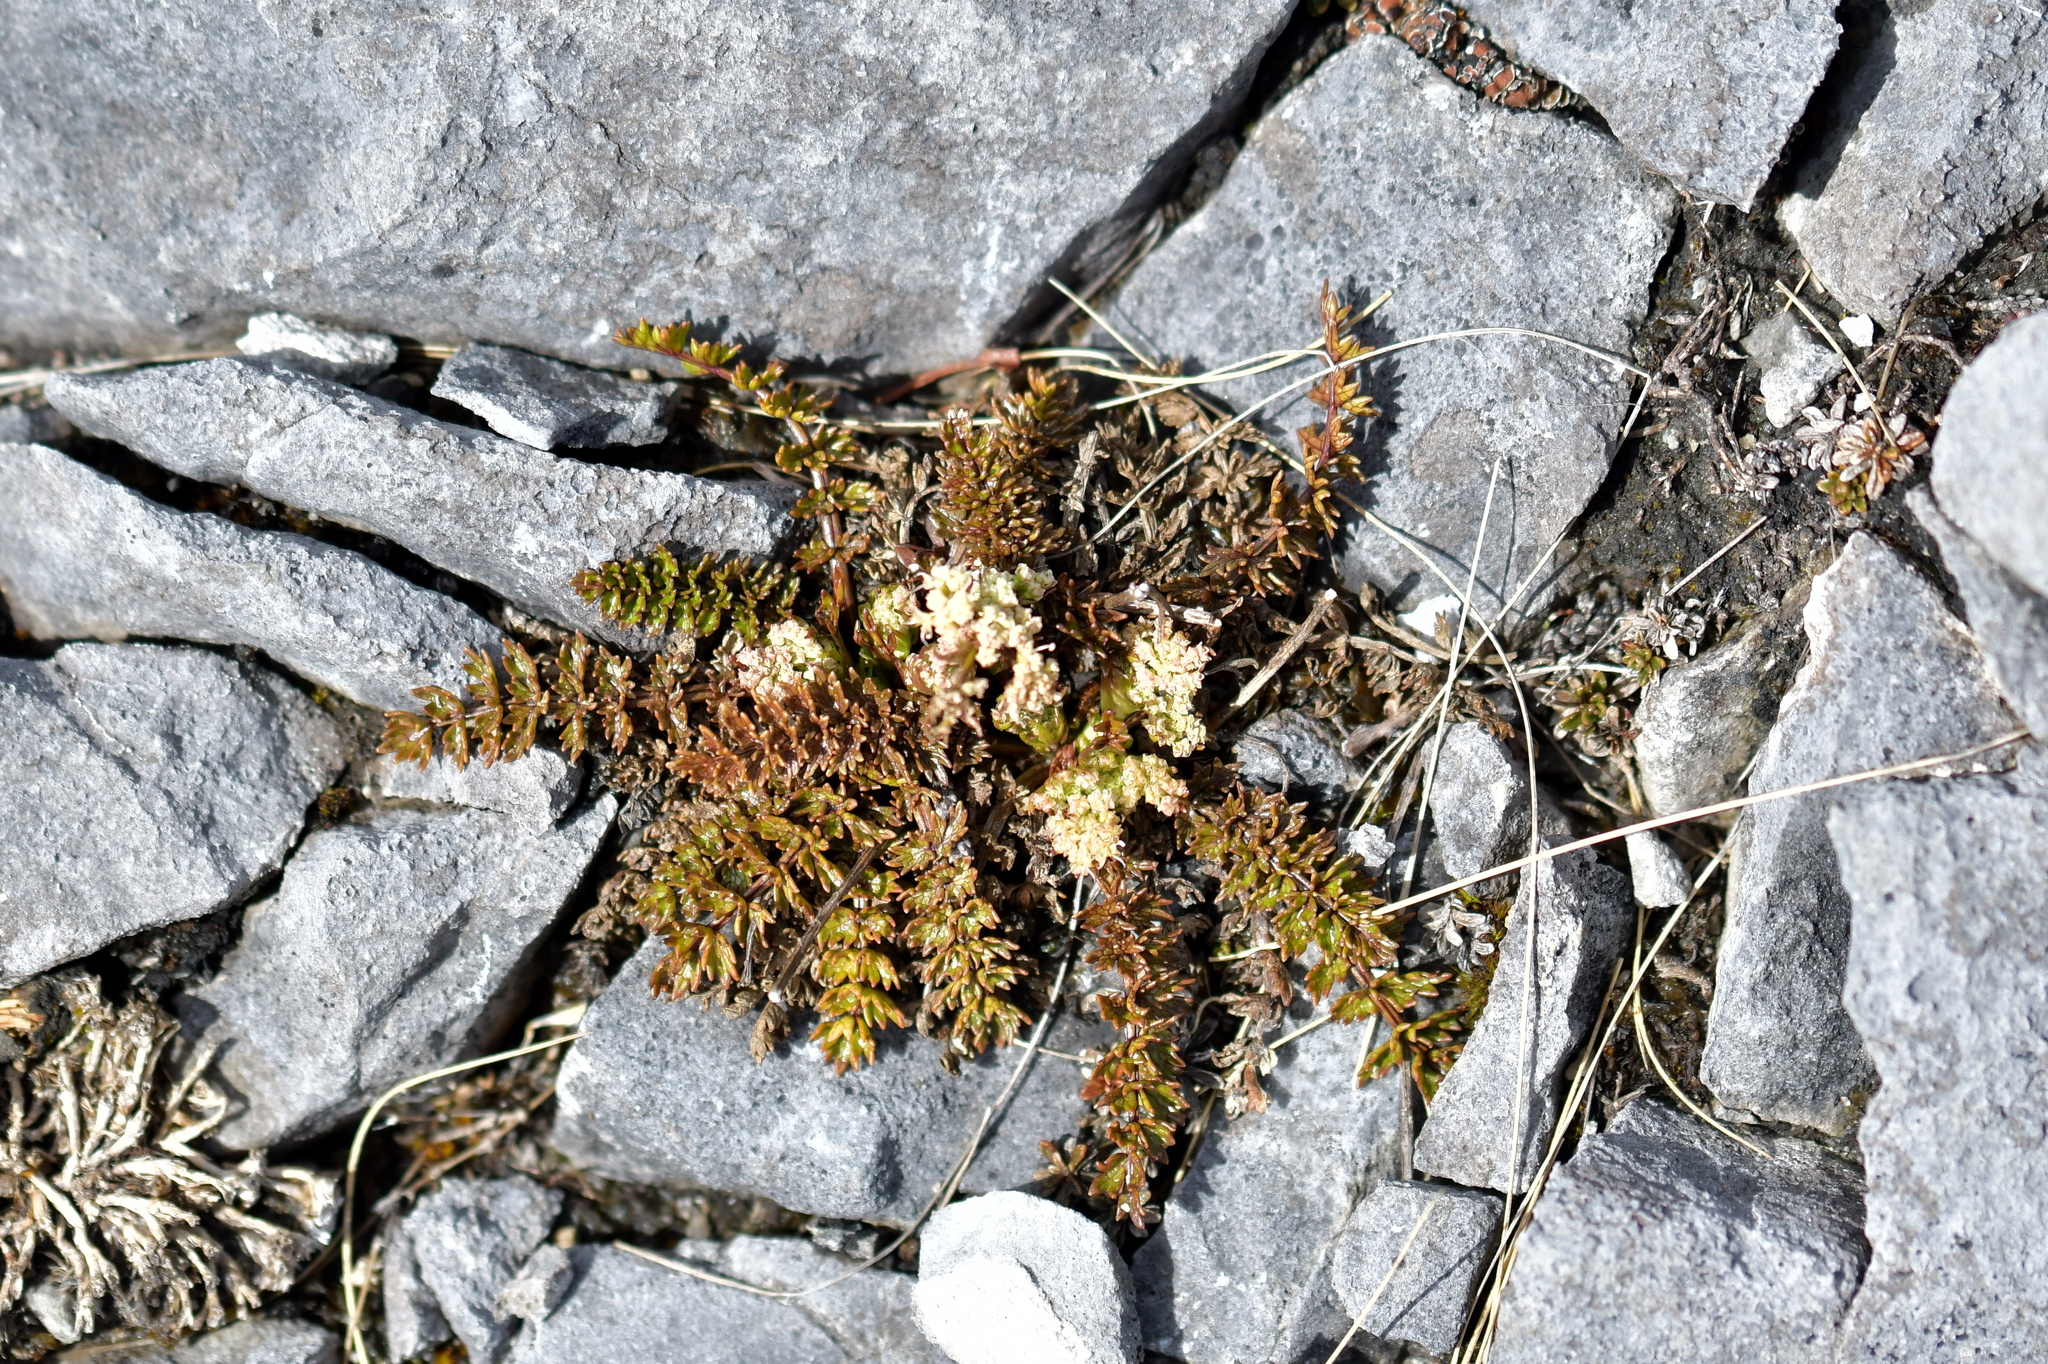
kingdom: Plantae
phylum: Tracheophyta
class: Magnoliopsida
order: Apiales
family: Apiaceae
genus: Gingidia
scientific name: Gingidia decipiens
